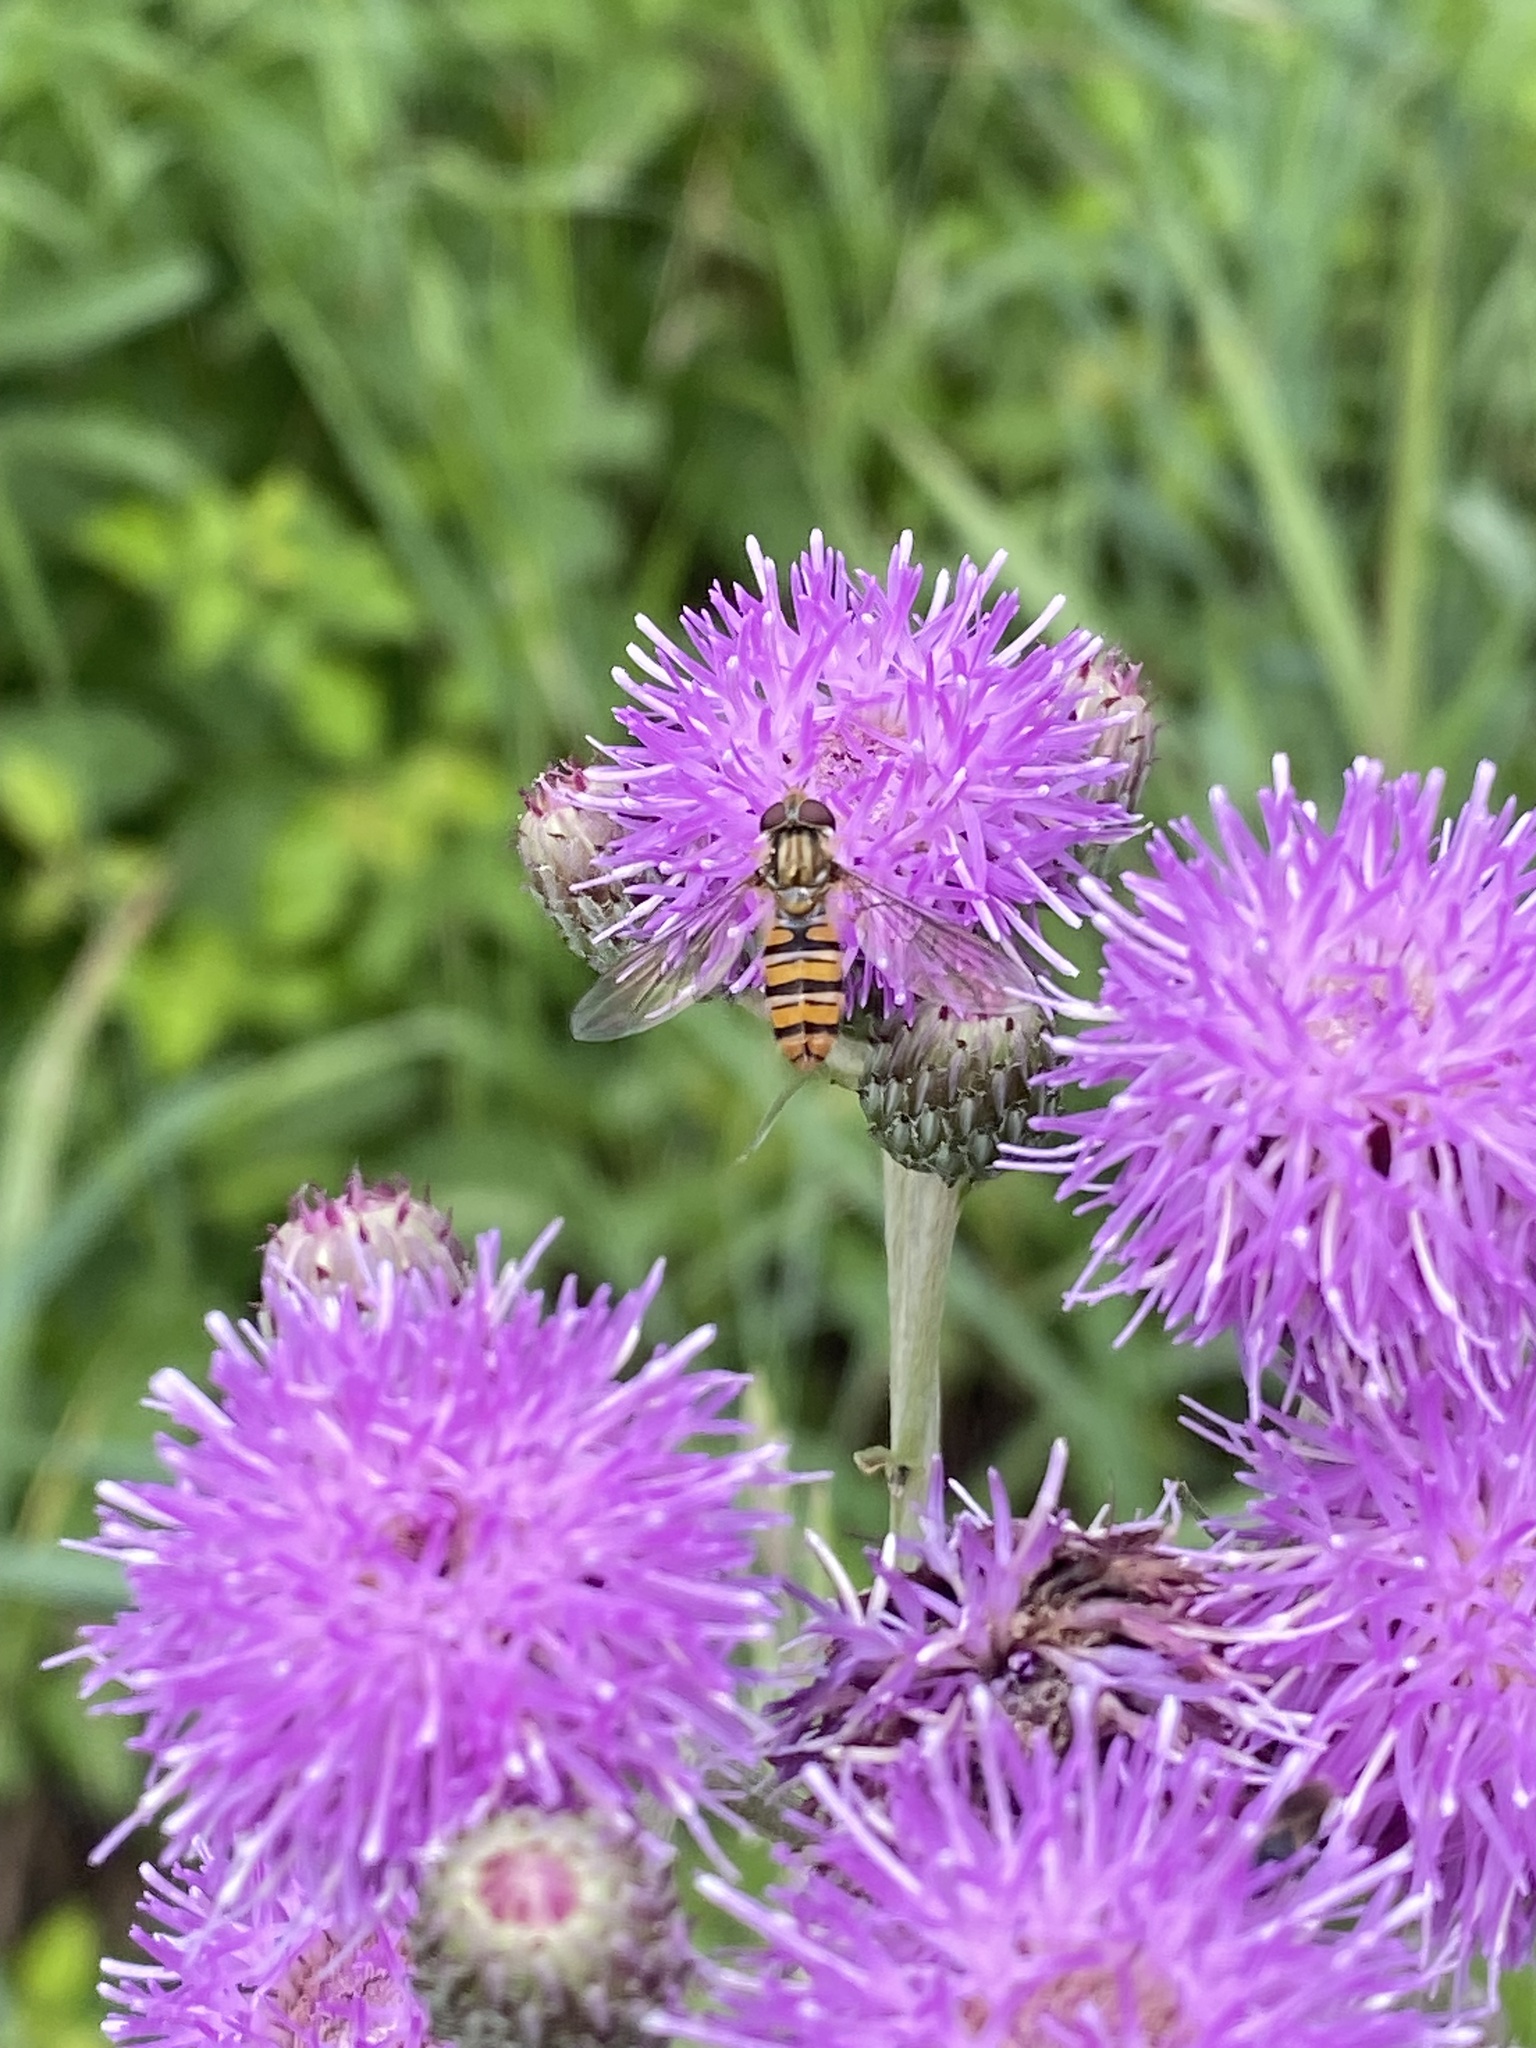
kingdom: Animalia
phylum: Arthropoda
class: Insecta
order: Diptera
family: Syrphidae
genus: Episyrphus
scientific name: Episyrphus balteatus
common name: Marmalade hoverfly
